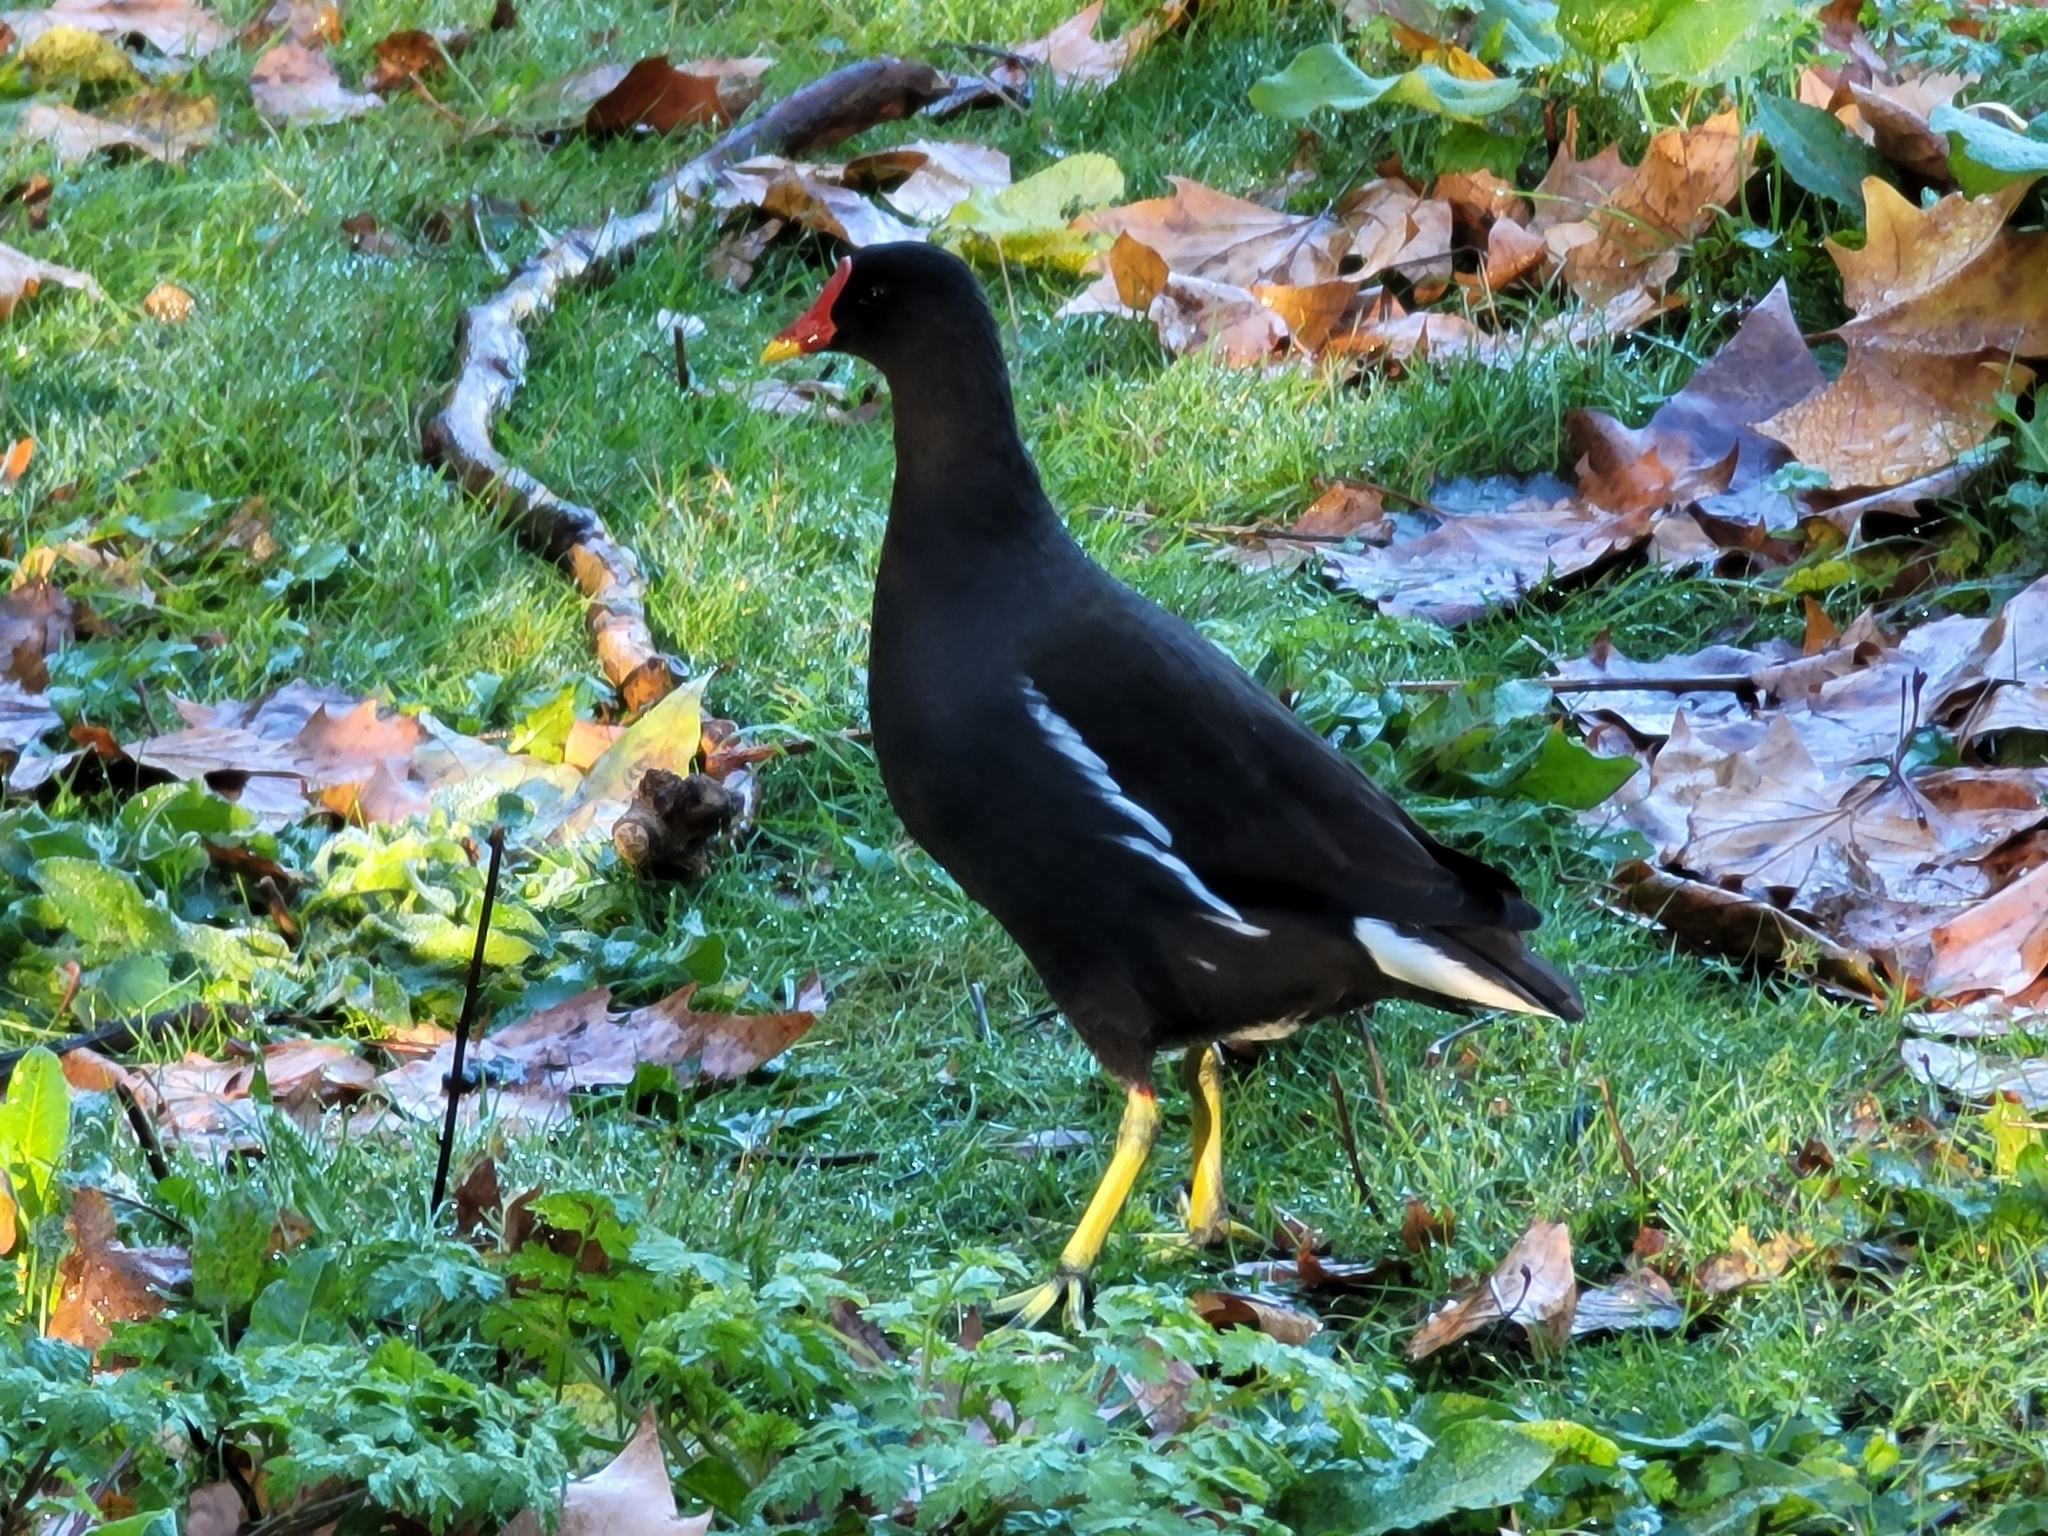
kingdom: Animalia
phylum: Chordata
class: Aves
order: Gruiformes
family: Rallidae
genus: Gallinula
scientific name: Gallinula chloropus
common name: Common moorhen
